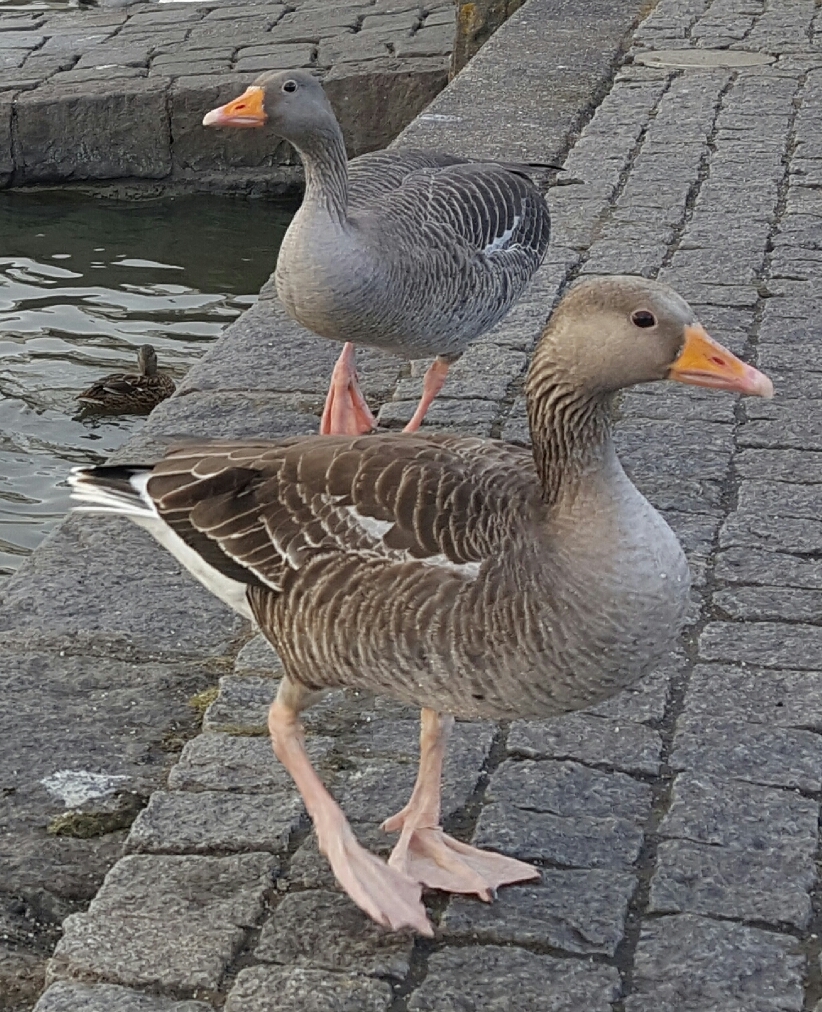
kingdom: Animalia
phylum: Chordata
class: Aves
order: Anseriformes
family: Anatidae
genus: Anser
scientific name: Anser anser
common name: Greylag goose
